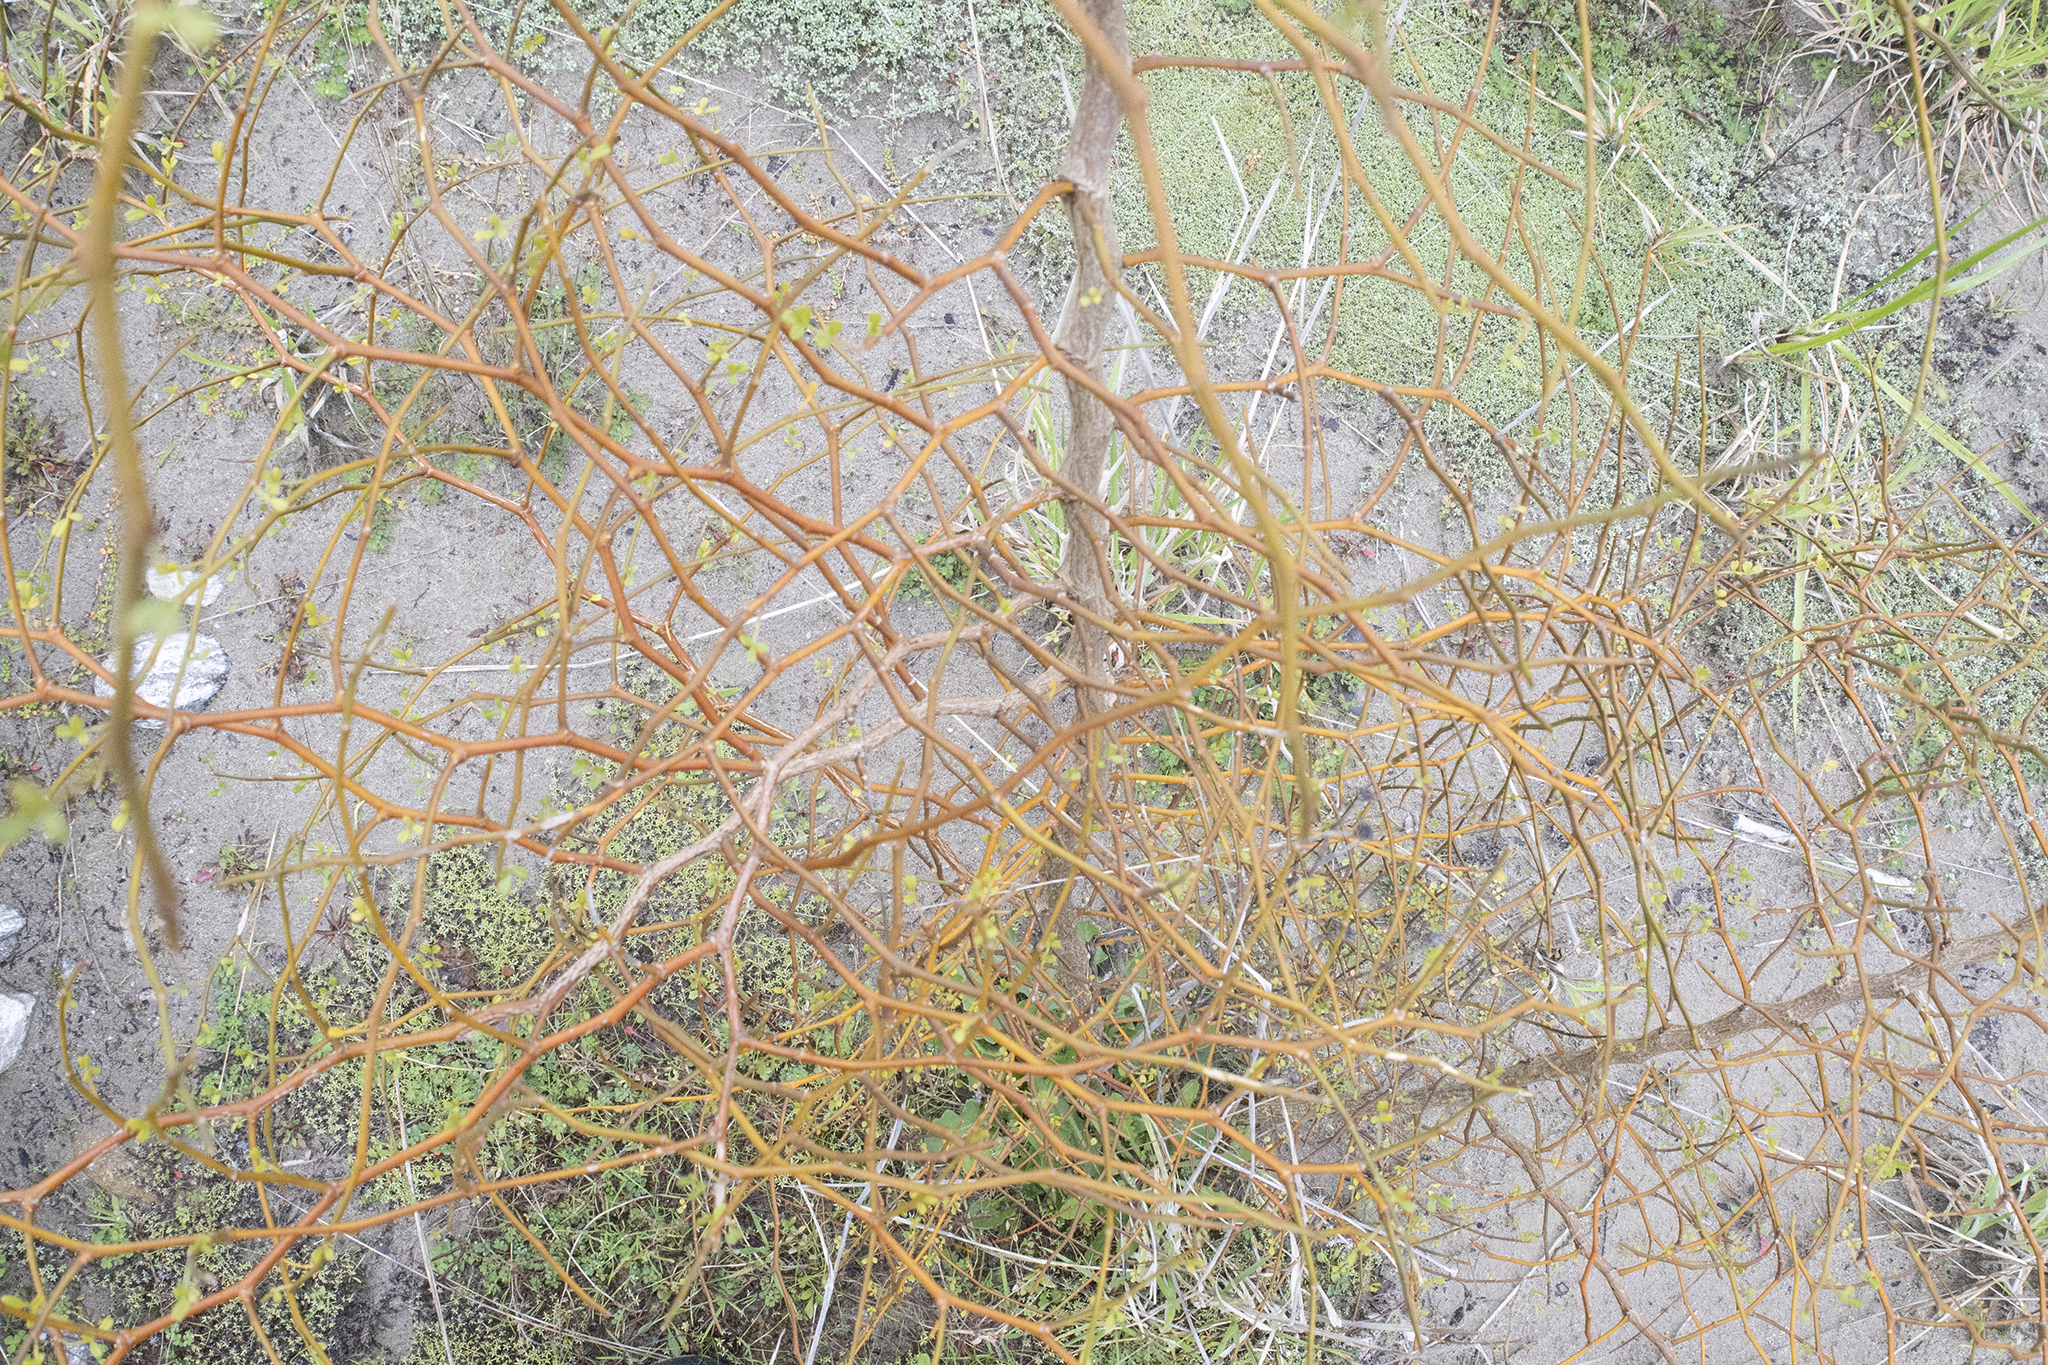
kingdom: Plantae
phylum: Tracheophyta
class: Magnoliopsida
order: Fabales
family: Fabaceae
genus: Sophora
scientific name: Sophora microphylla
